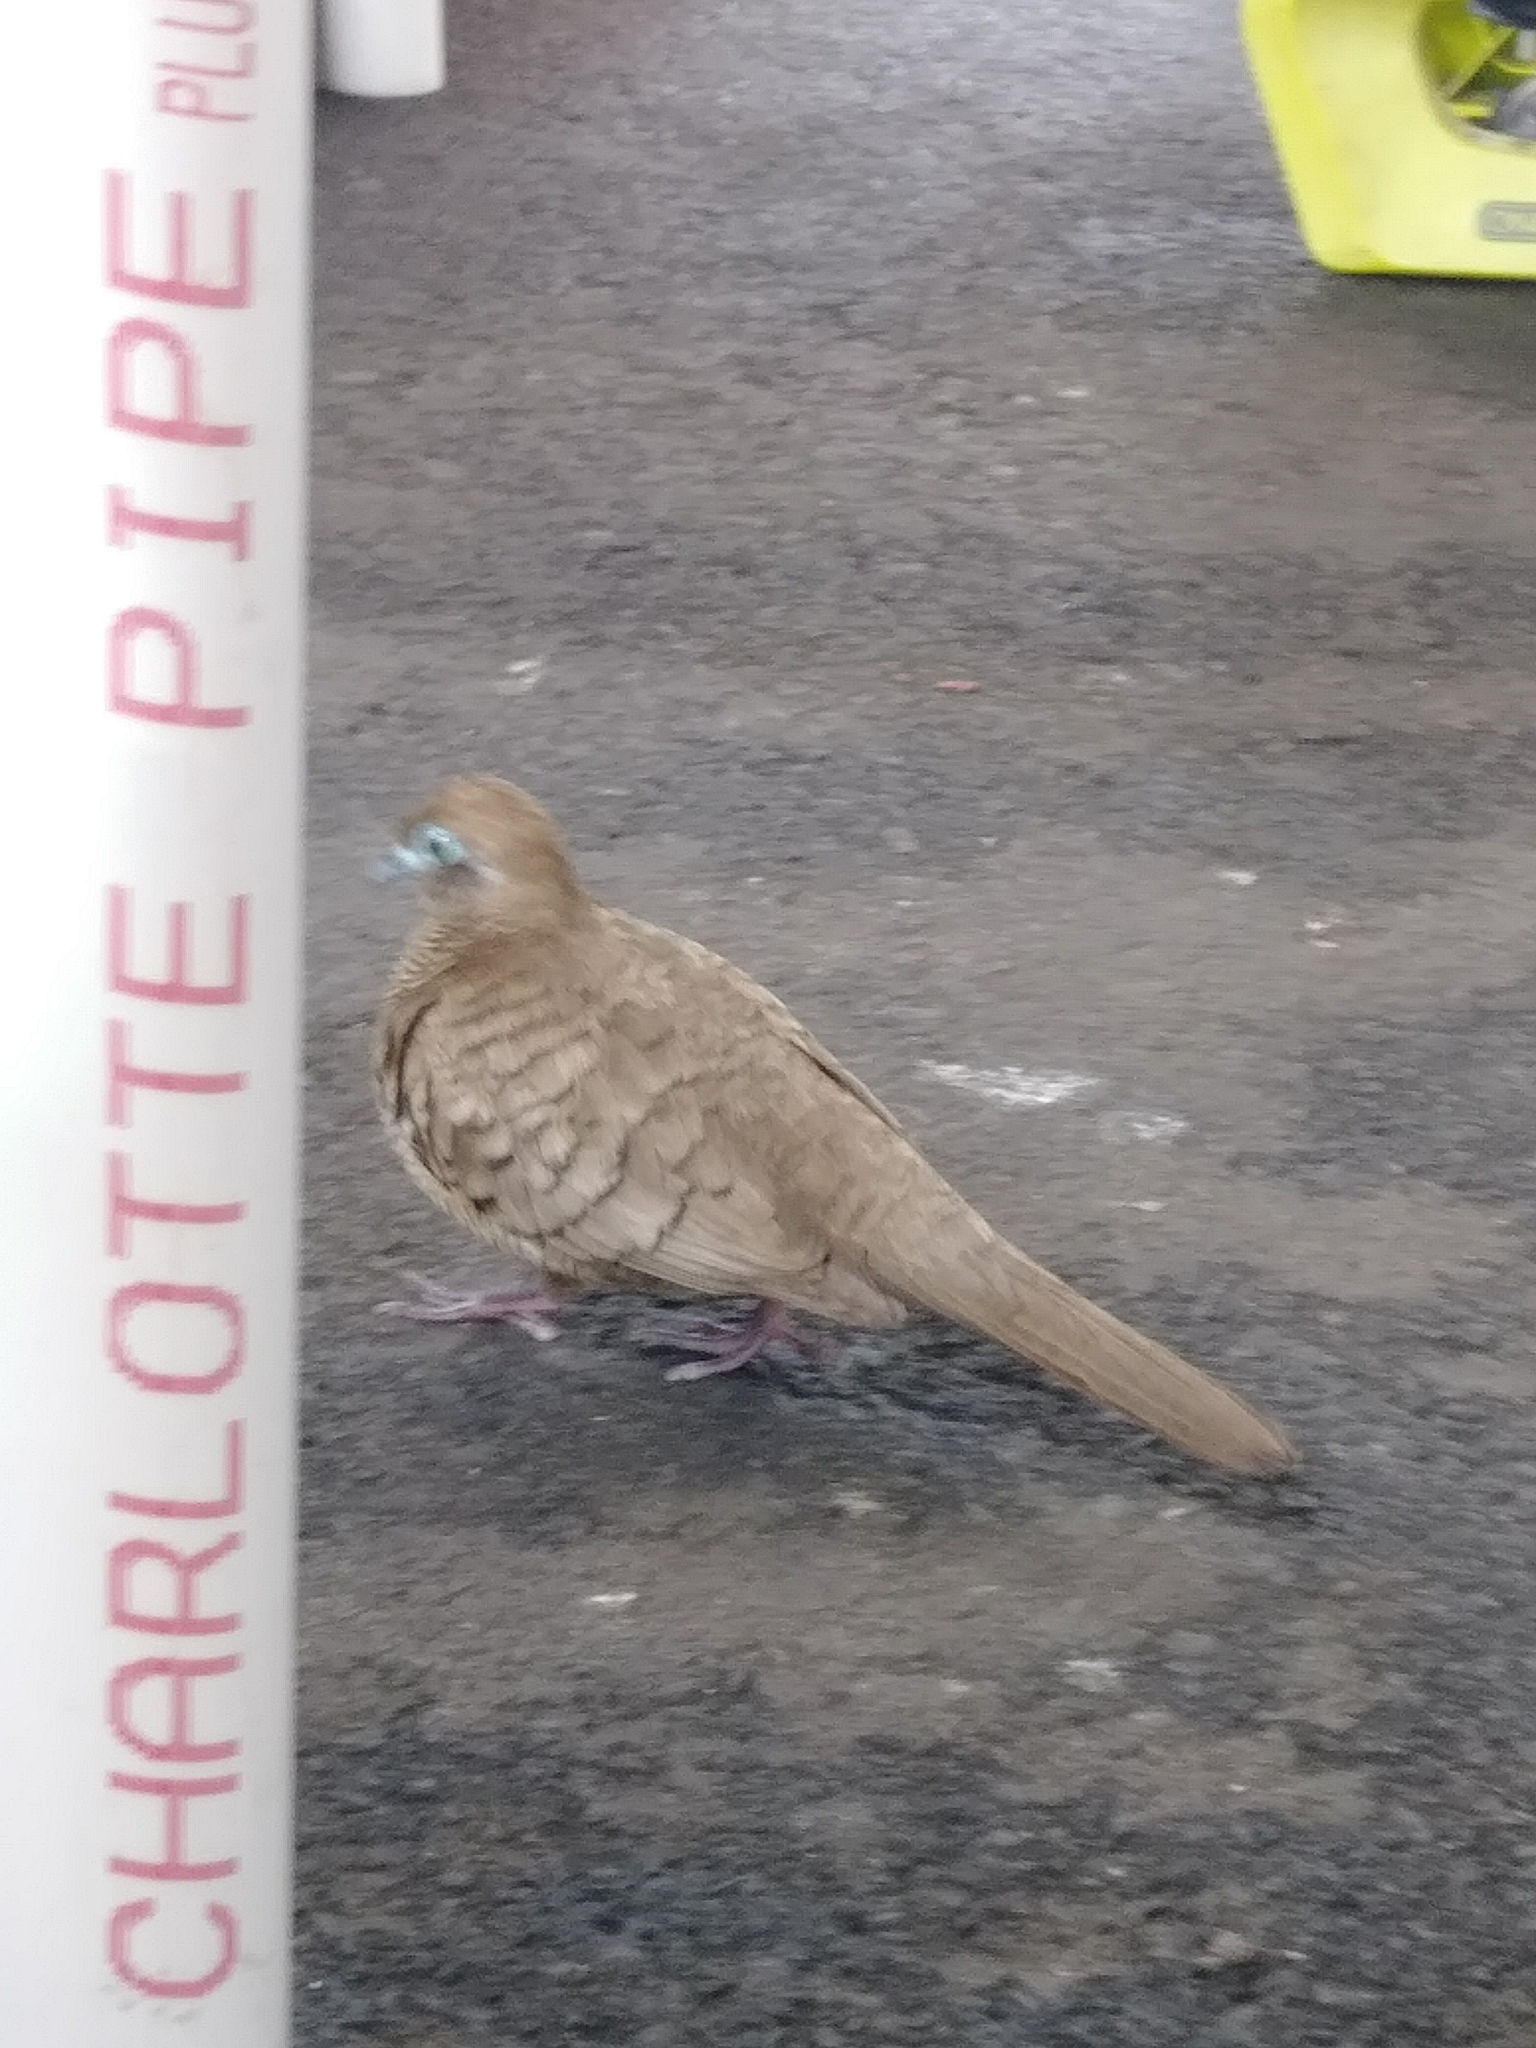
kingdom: Animalia
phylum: Chordata
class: Aves
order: Columbiformes
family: Columbidae
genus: Geopelia
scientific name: Geopelia striata
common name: Zebra dove
